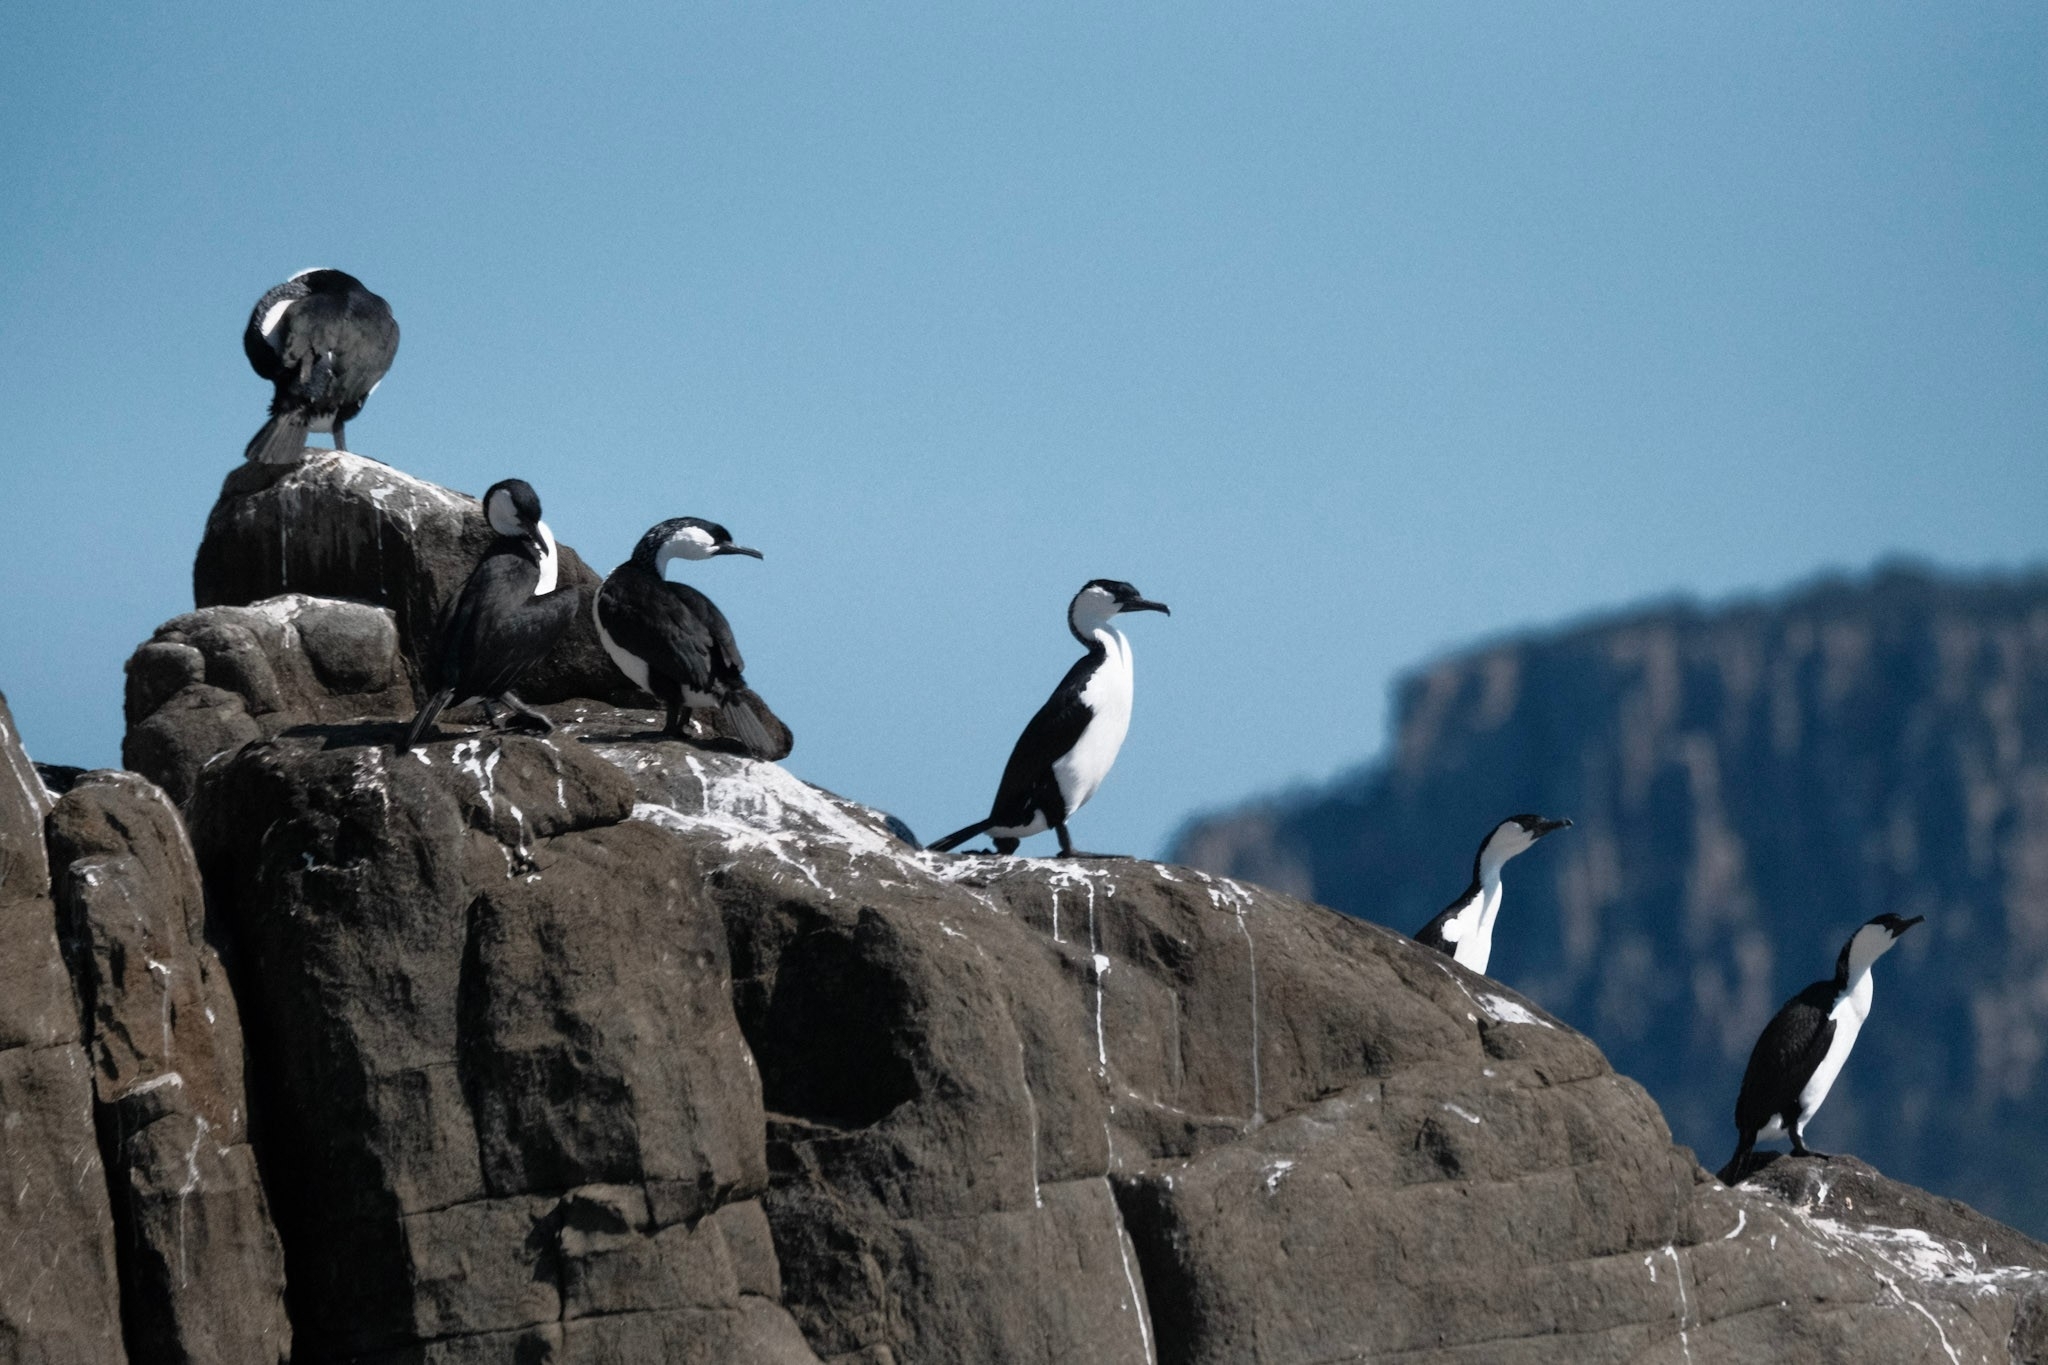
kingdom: Animalia
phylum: Chordata
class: Aves
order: Suliformes
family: Phalacrocoracidae
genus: Phalacrocorax
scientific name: Phalacrocorax fuscescens
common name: Black-faced cormorant
